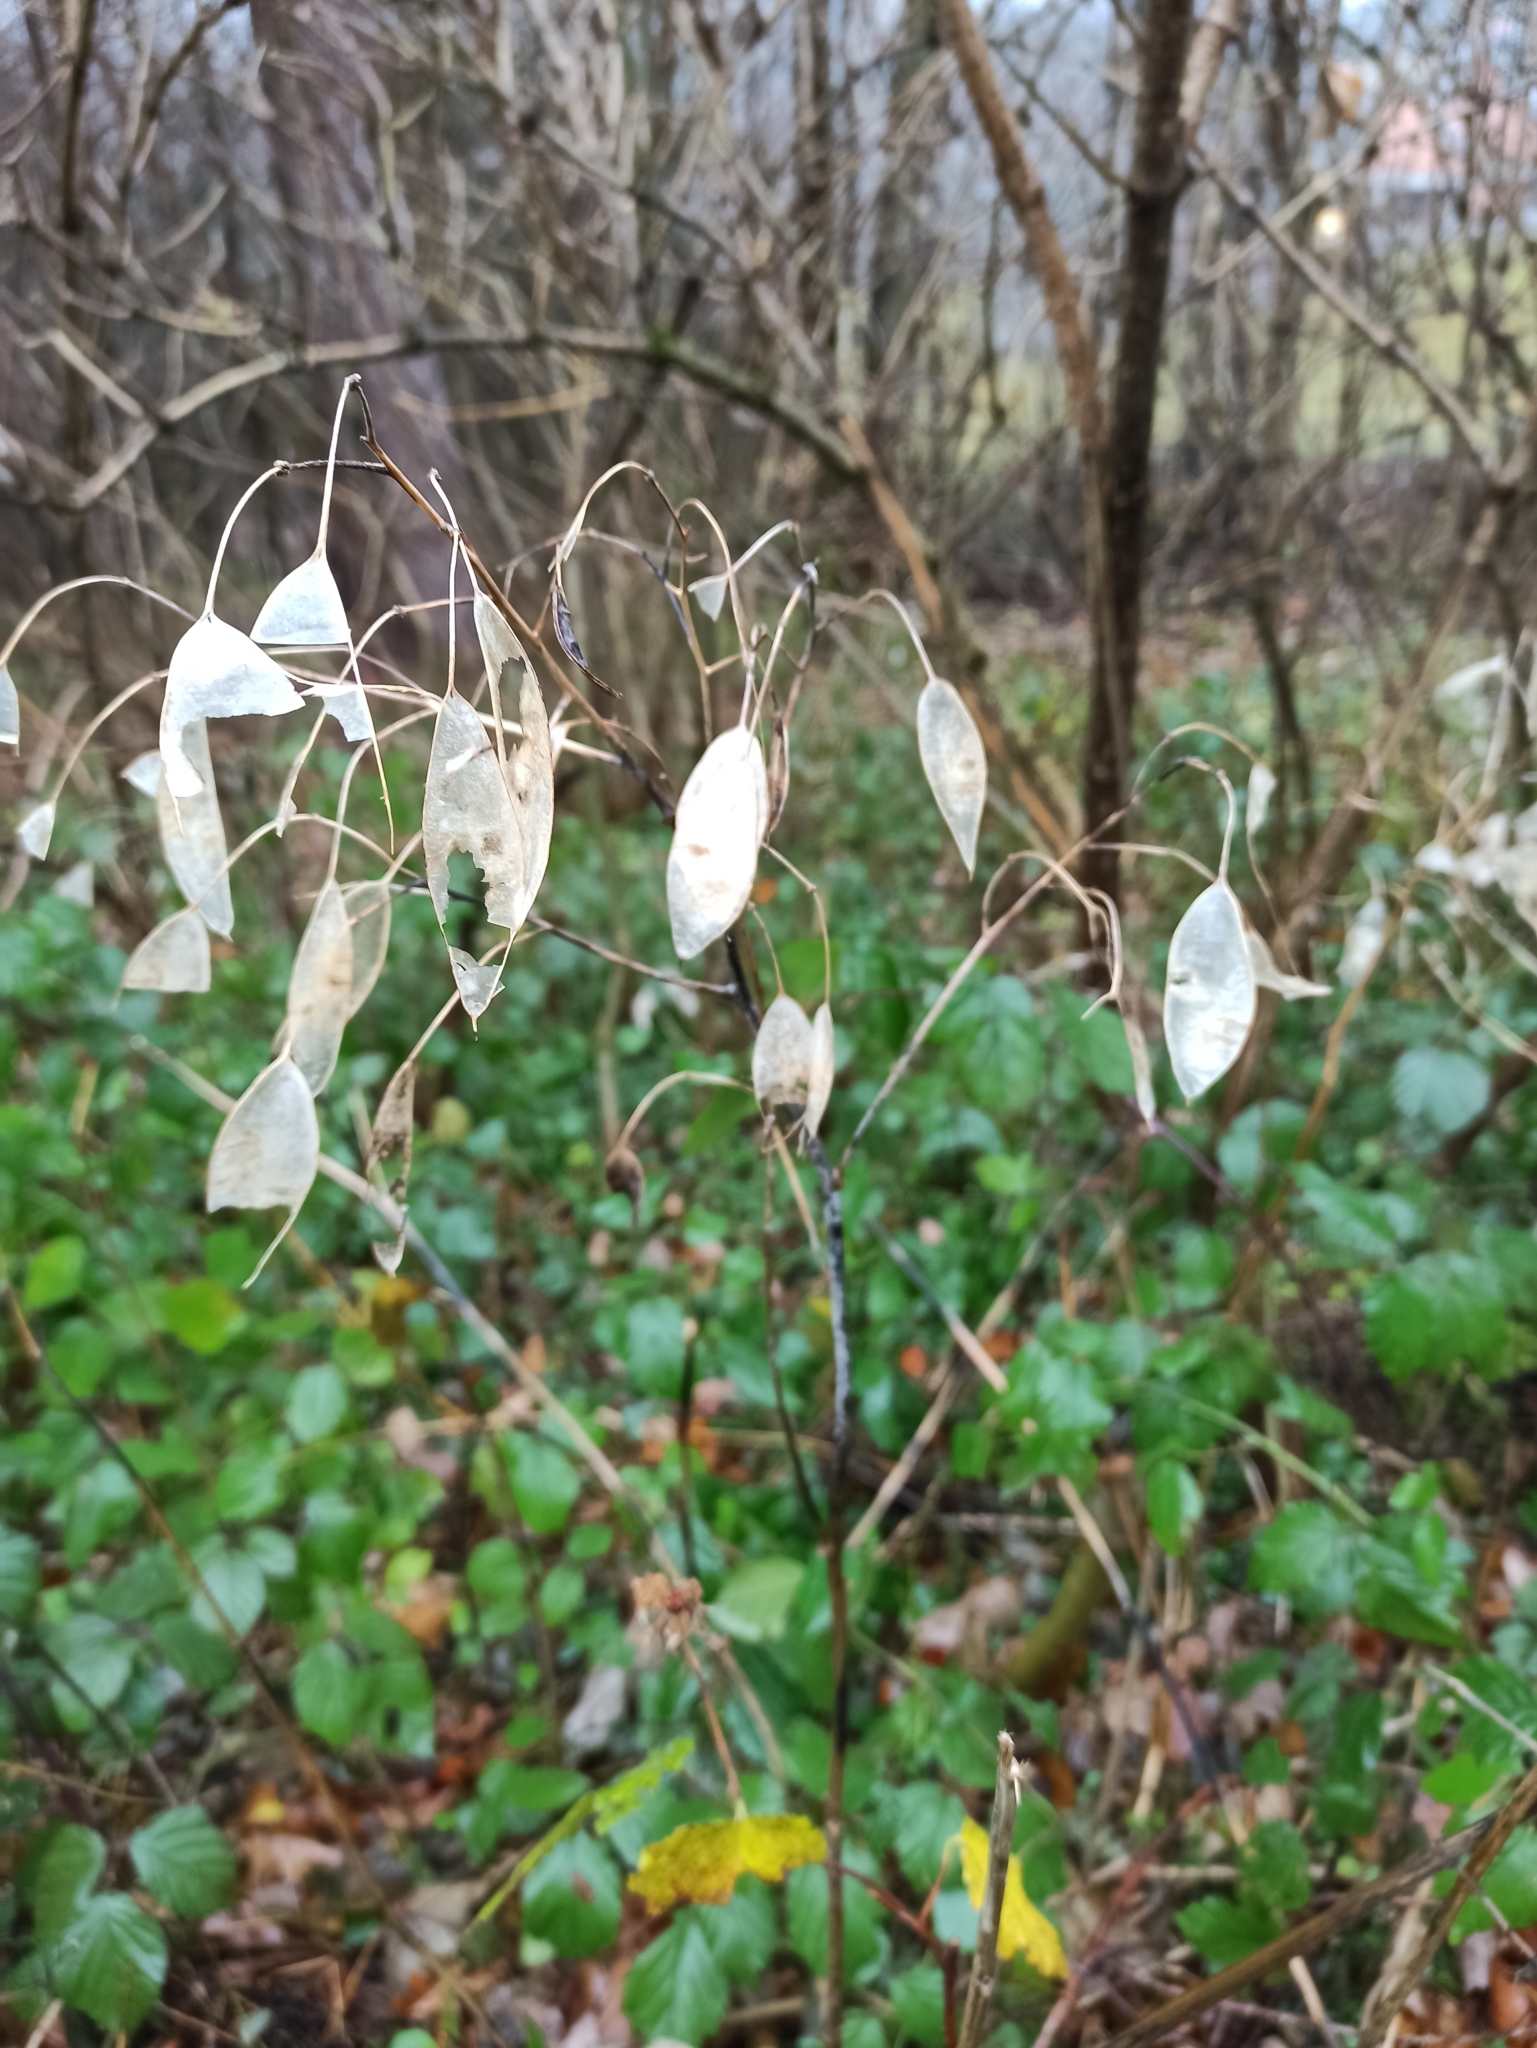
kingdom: Plantae
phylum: Tracheophyta
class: Magnoliopsida
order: Brassicales
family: Brassicaceae
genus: Lunaria
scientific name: Lunaria rediviva
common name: Perennial honesty
